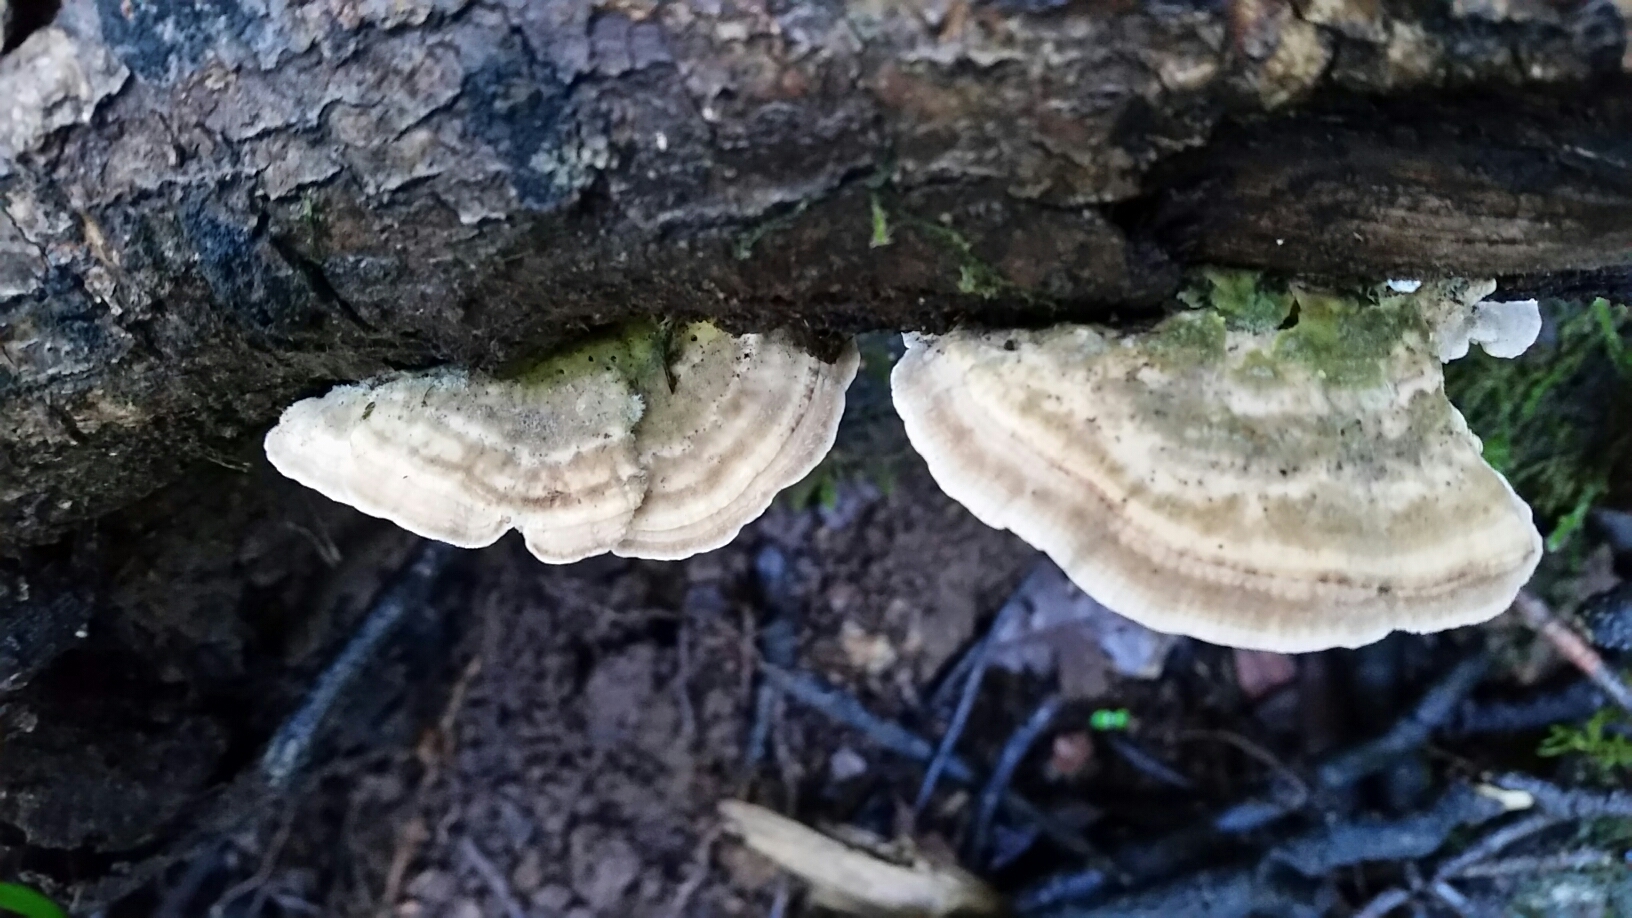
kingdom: Fungi
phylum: Basidiomycota
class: Agaricomycetes
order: Polyporales
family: Polyporaceae
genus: Lenzites
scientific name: Lenzites betulinus
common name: Birch mazegill
